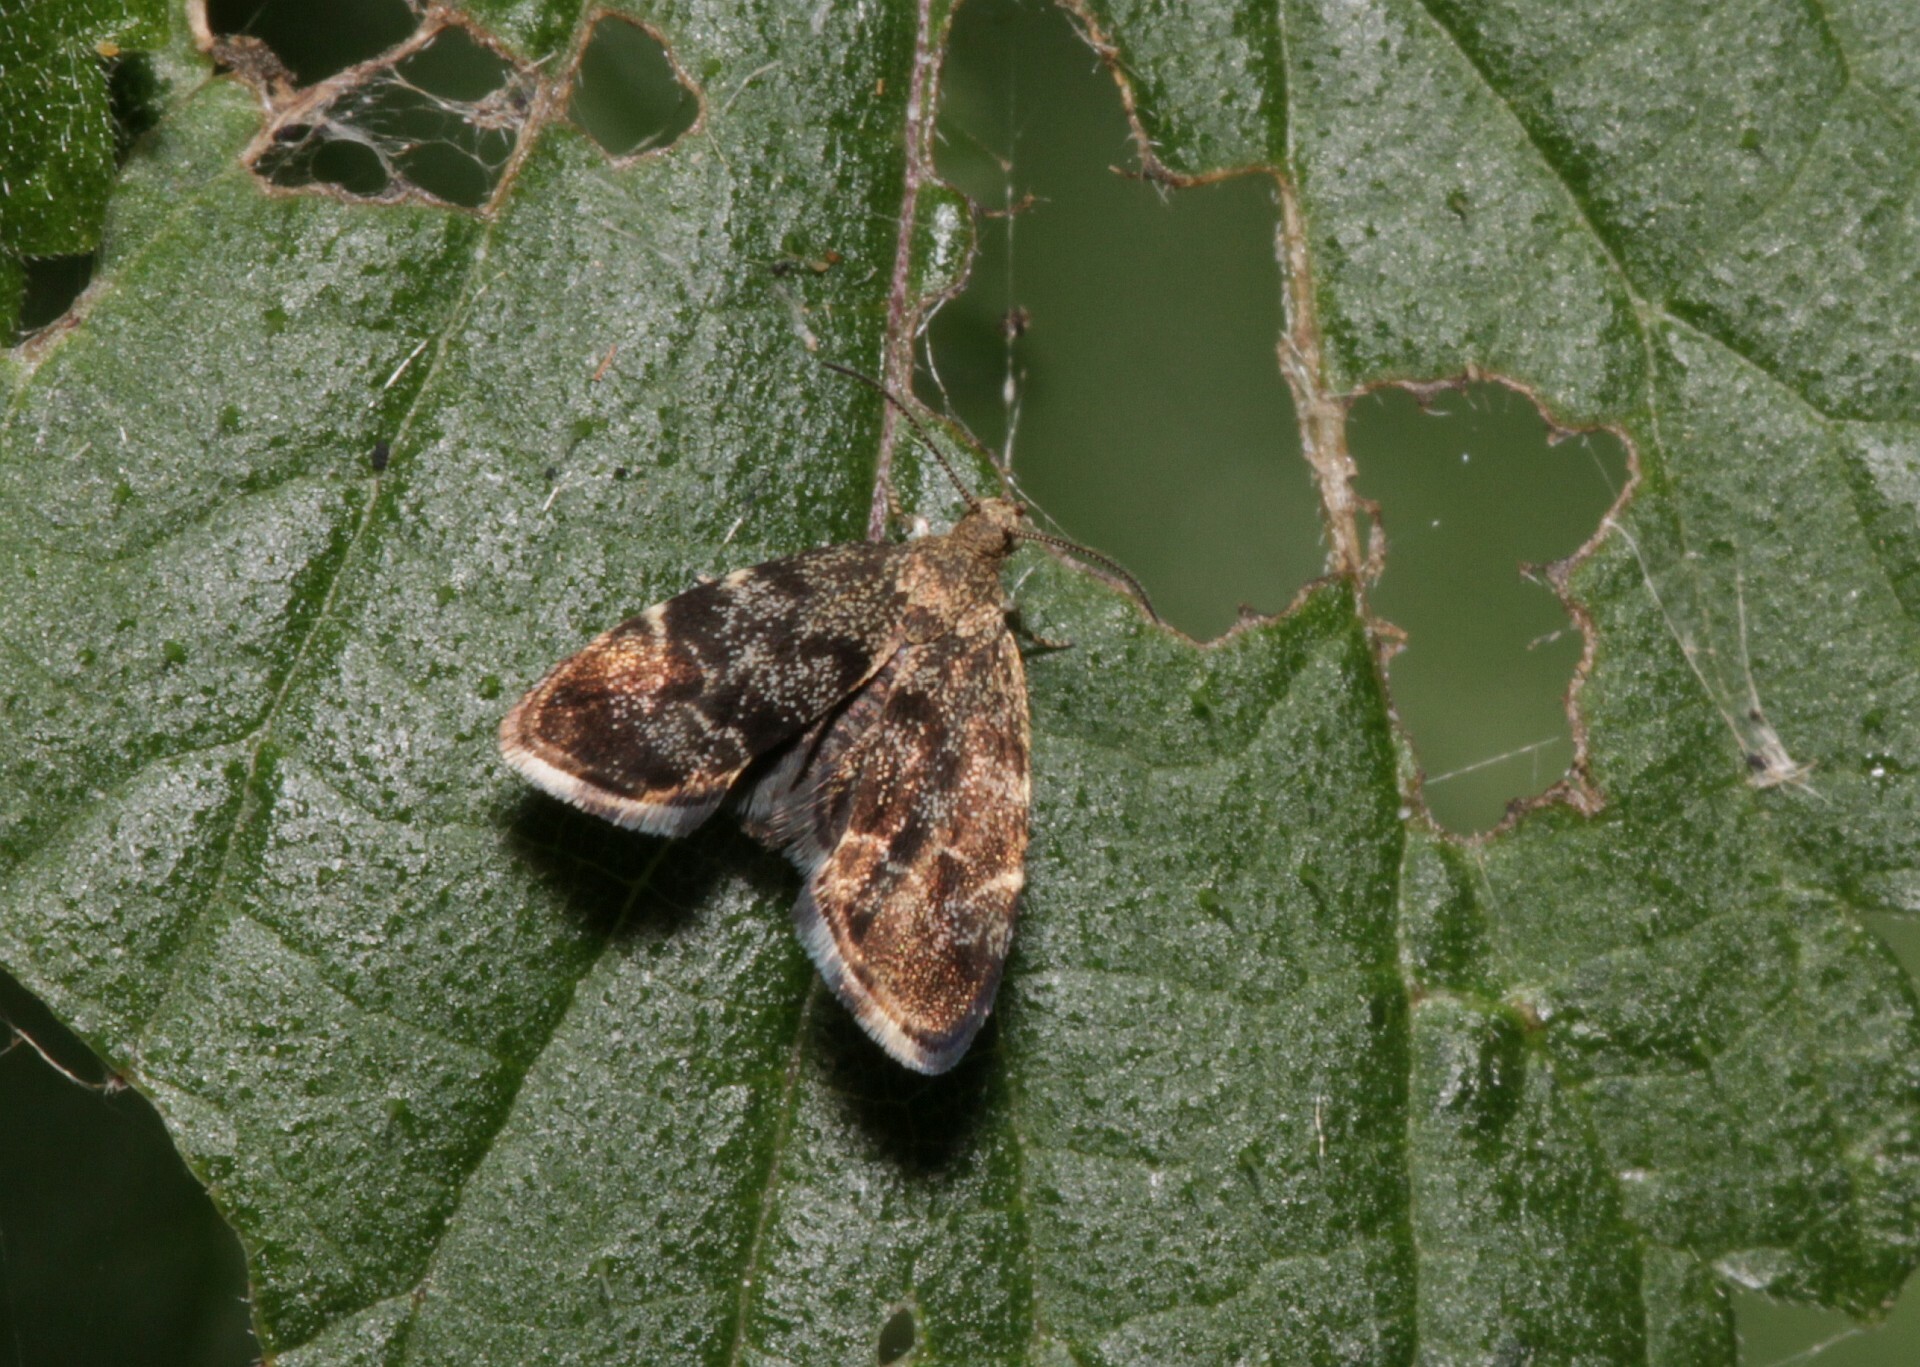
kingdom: Animalia
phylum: Arthropoda
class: Insecta
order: Lepidoptera
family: Choreutidae
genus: Anthophila
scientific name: Anthophila fabriciana
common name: Nettle-tap
